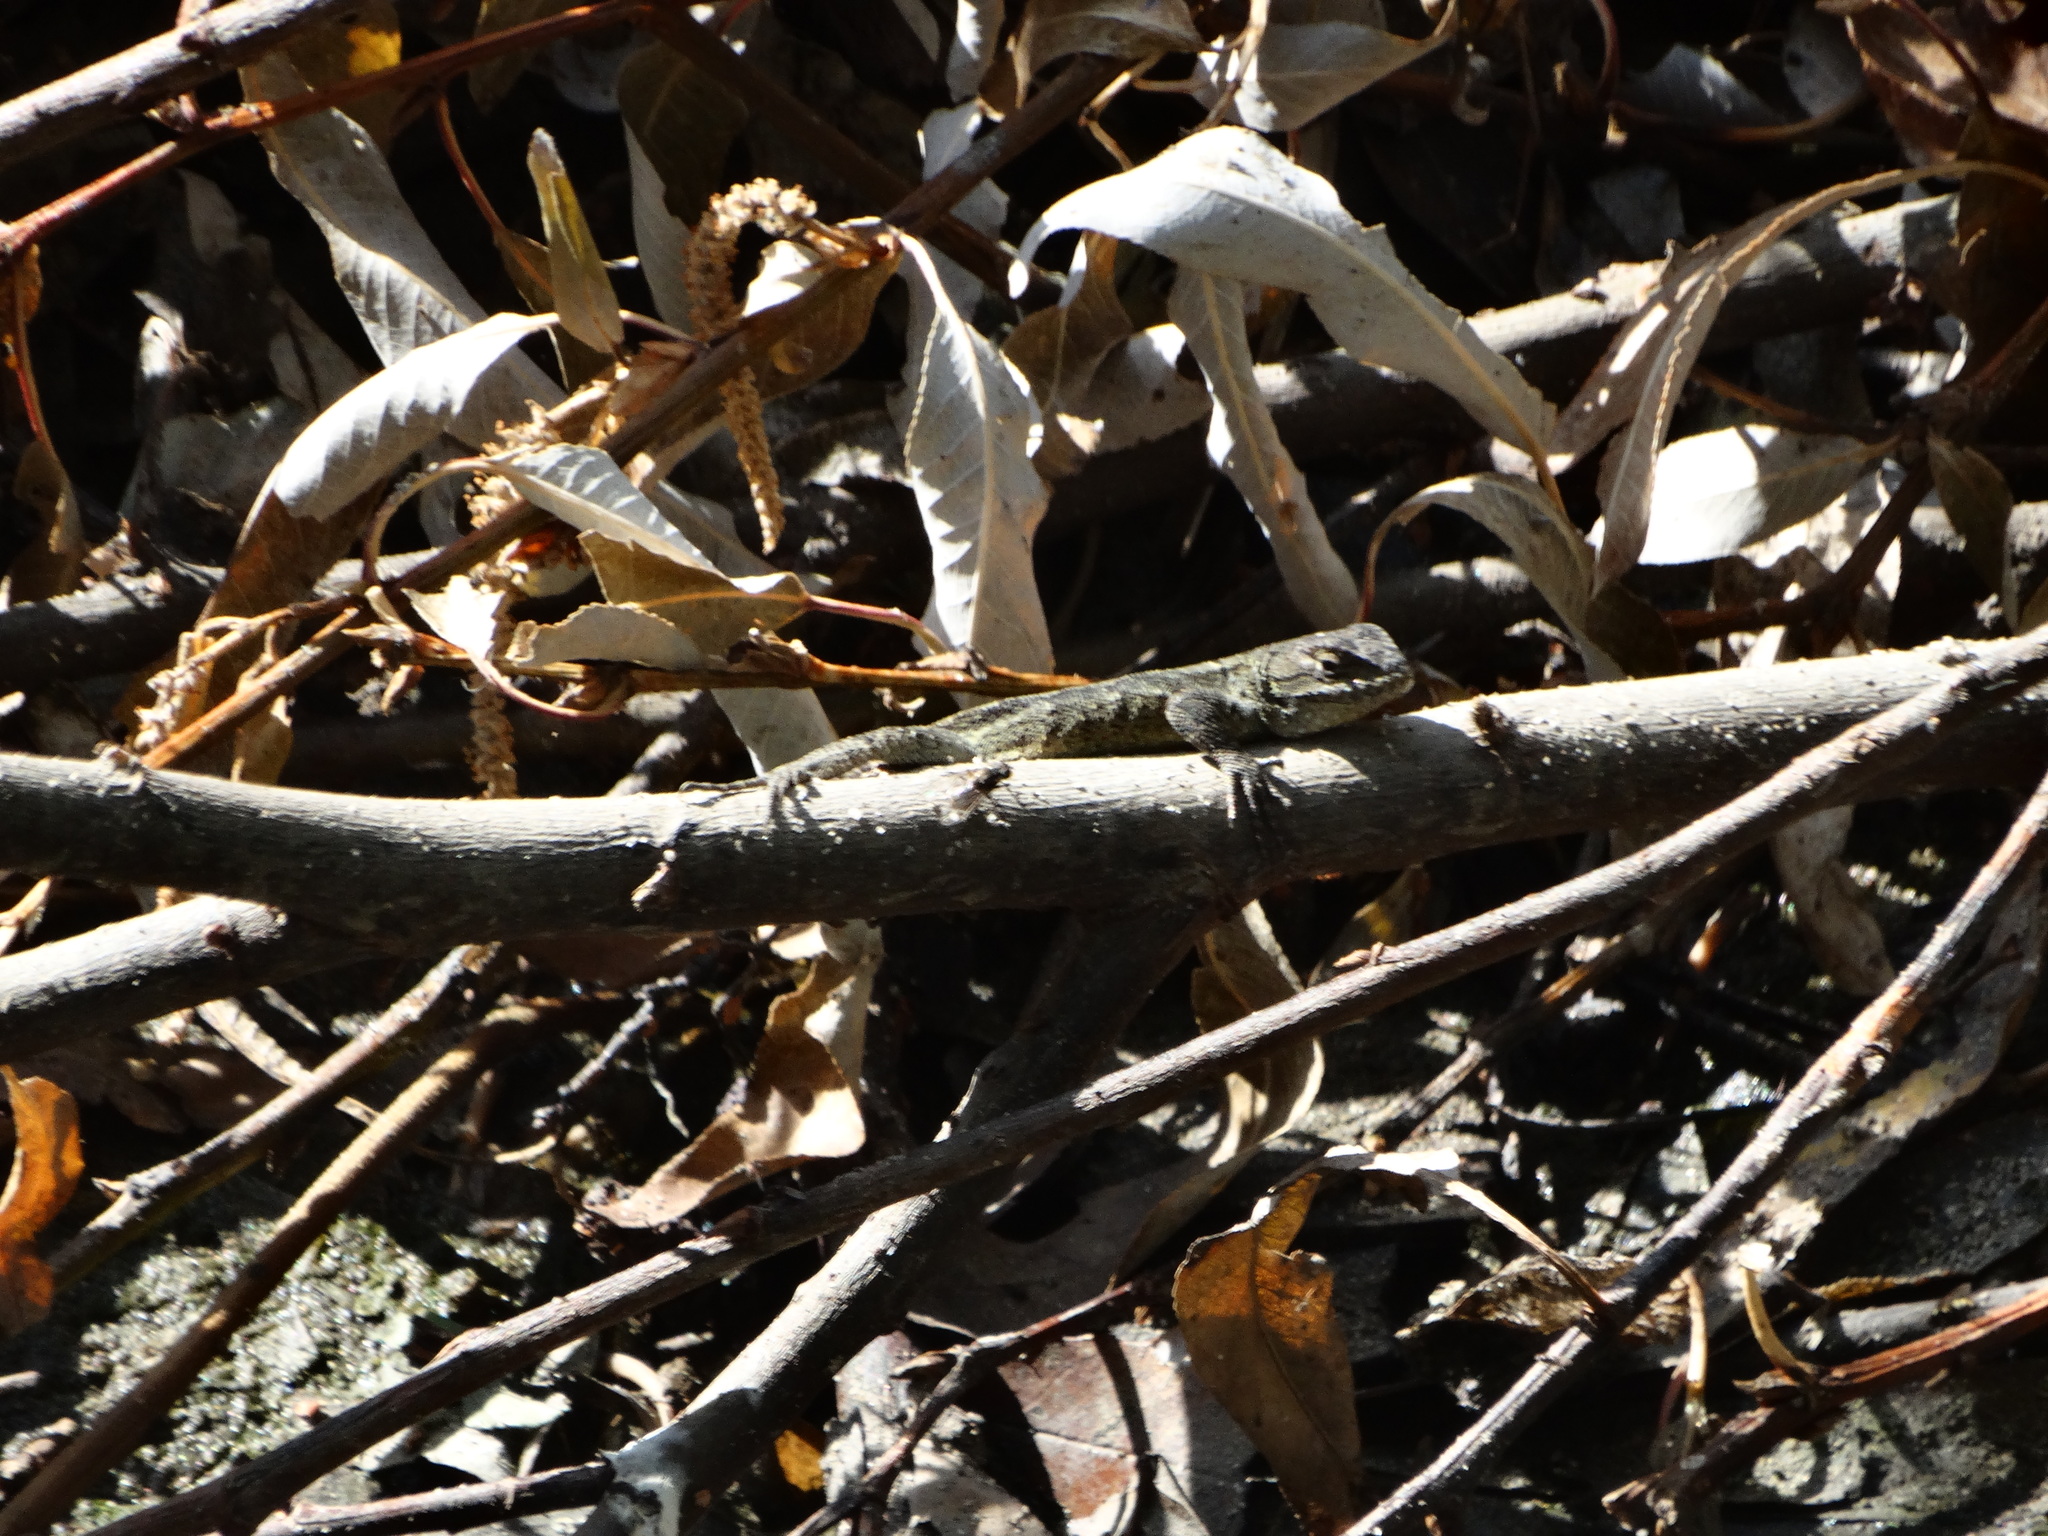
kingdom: Animalia
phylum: Chordata
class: Squamata
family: Phrynosomatidae
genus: Sceloporus
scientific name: Sceloporus grammicus
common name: Mesquite lizard
